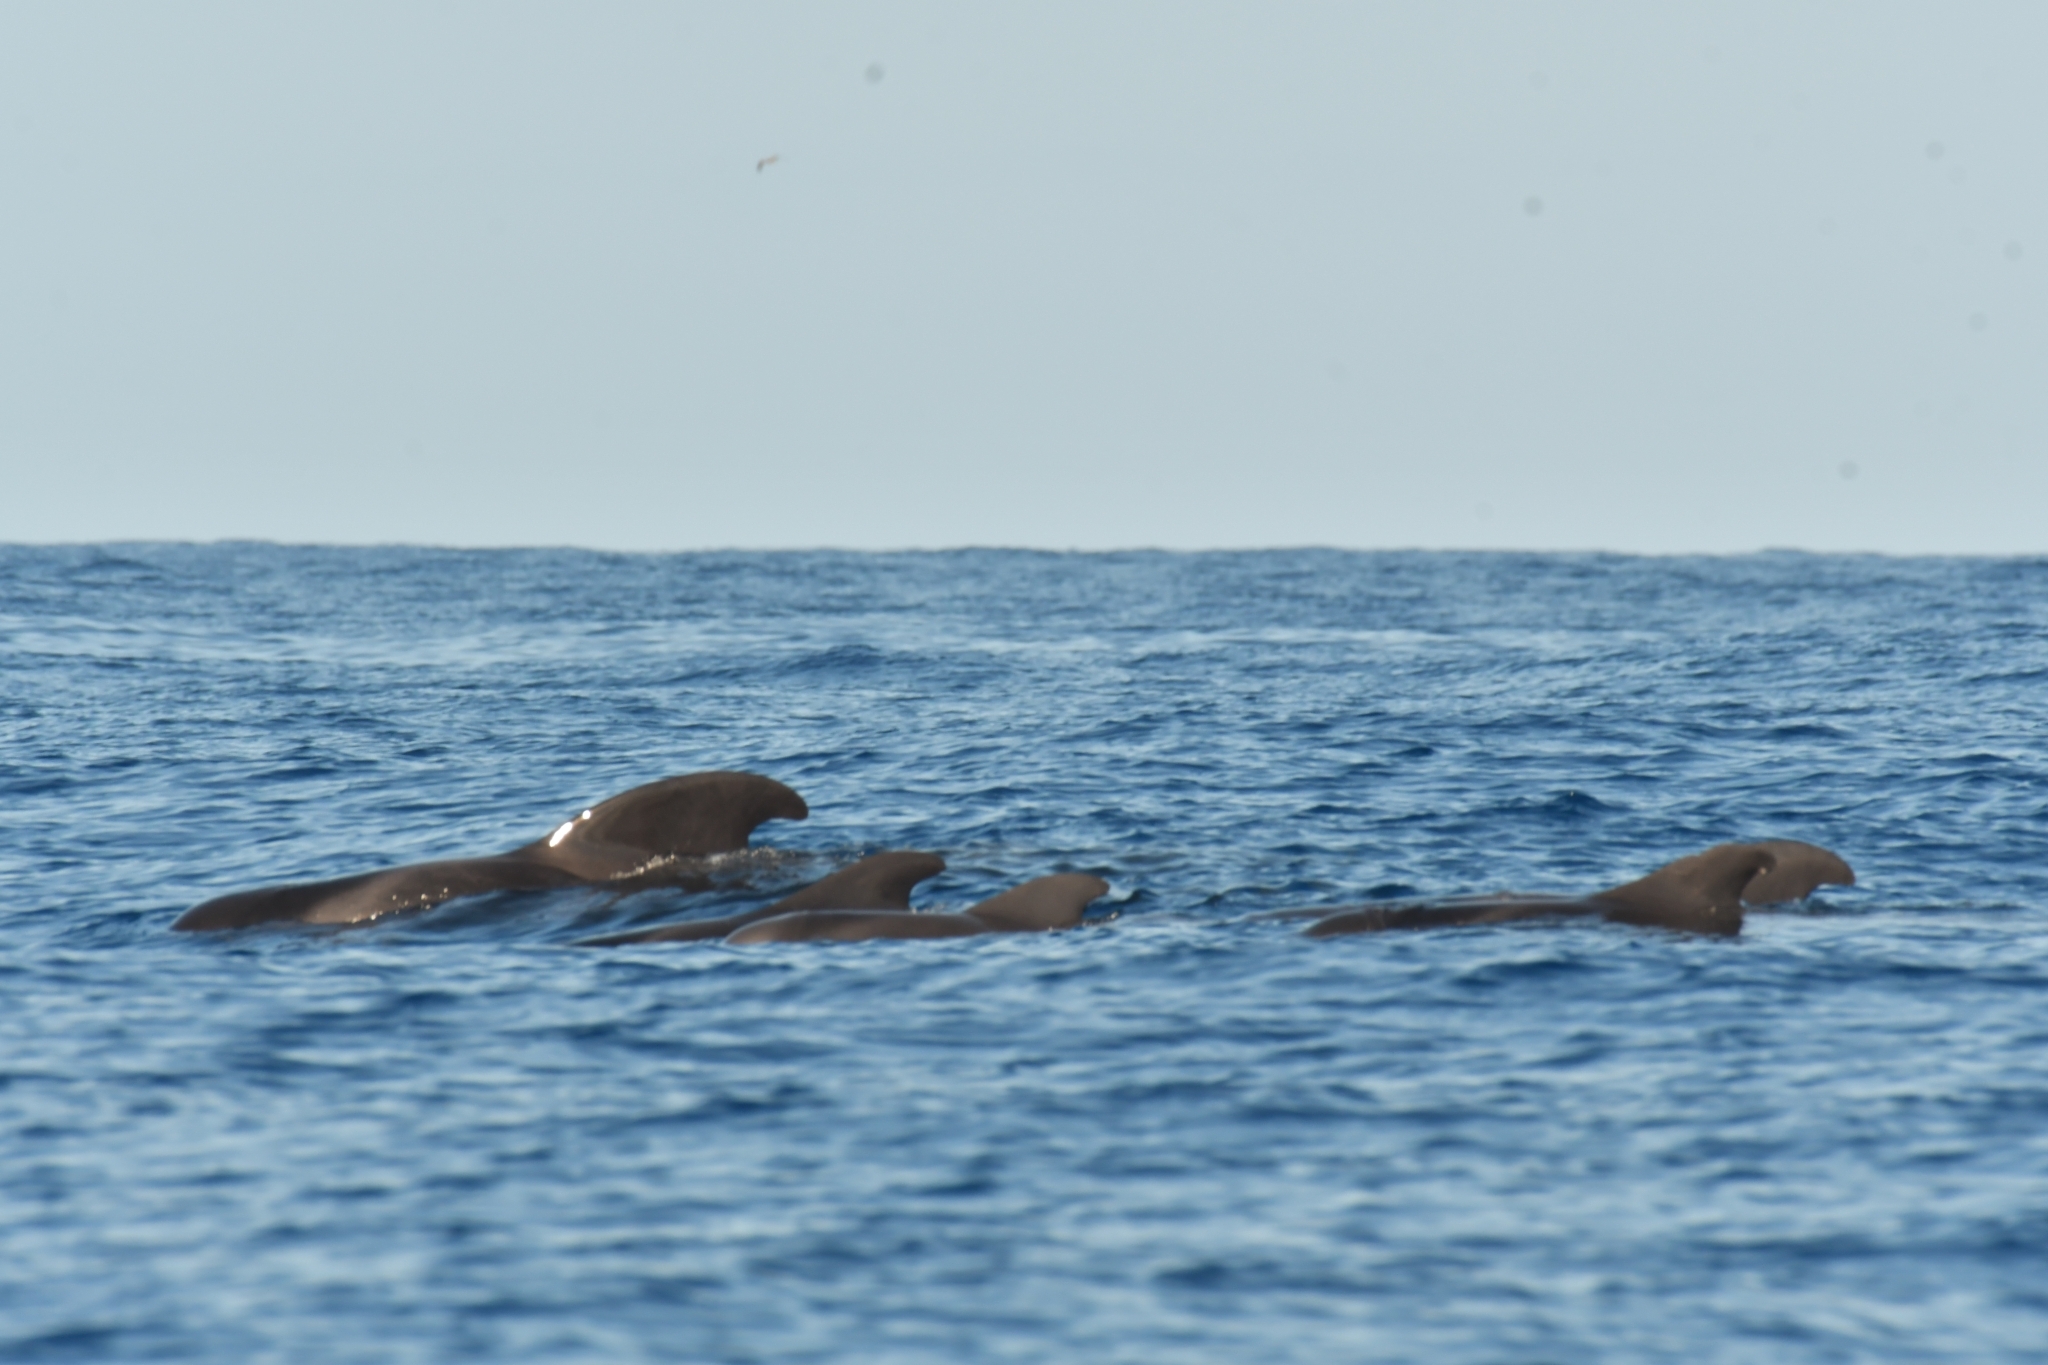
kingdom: Animalia
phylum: Chordata
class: Mammalia
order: Cetacea
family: Delphinidae
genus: Globicephala
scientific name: Globicephala macrorhynchus
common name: Short-finned pilot whale
